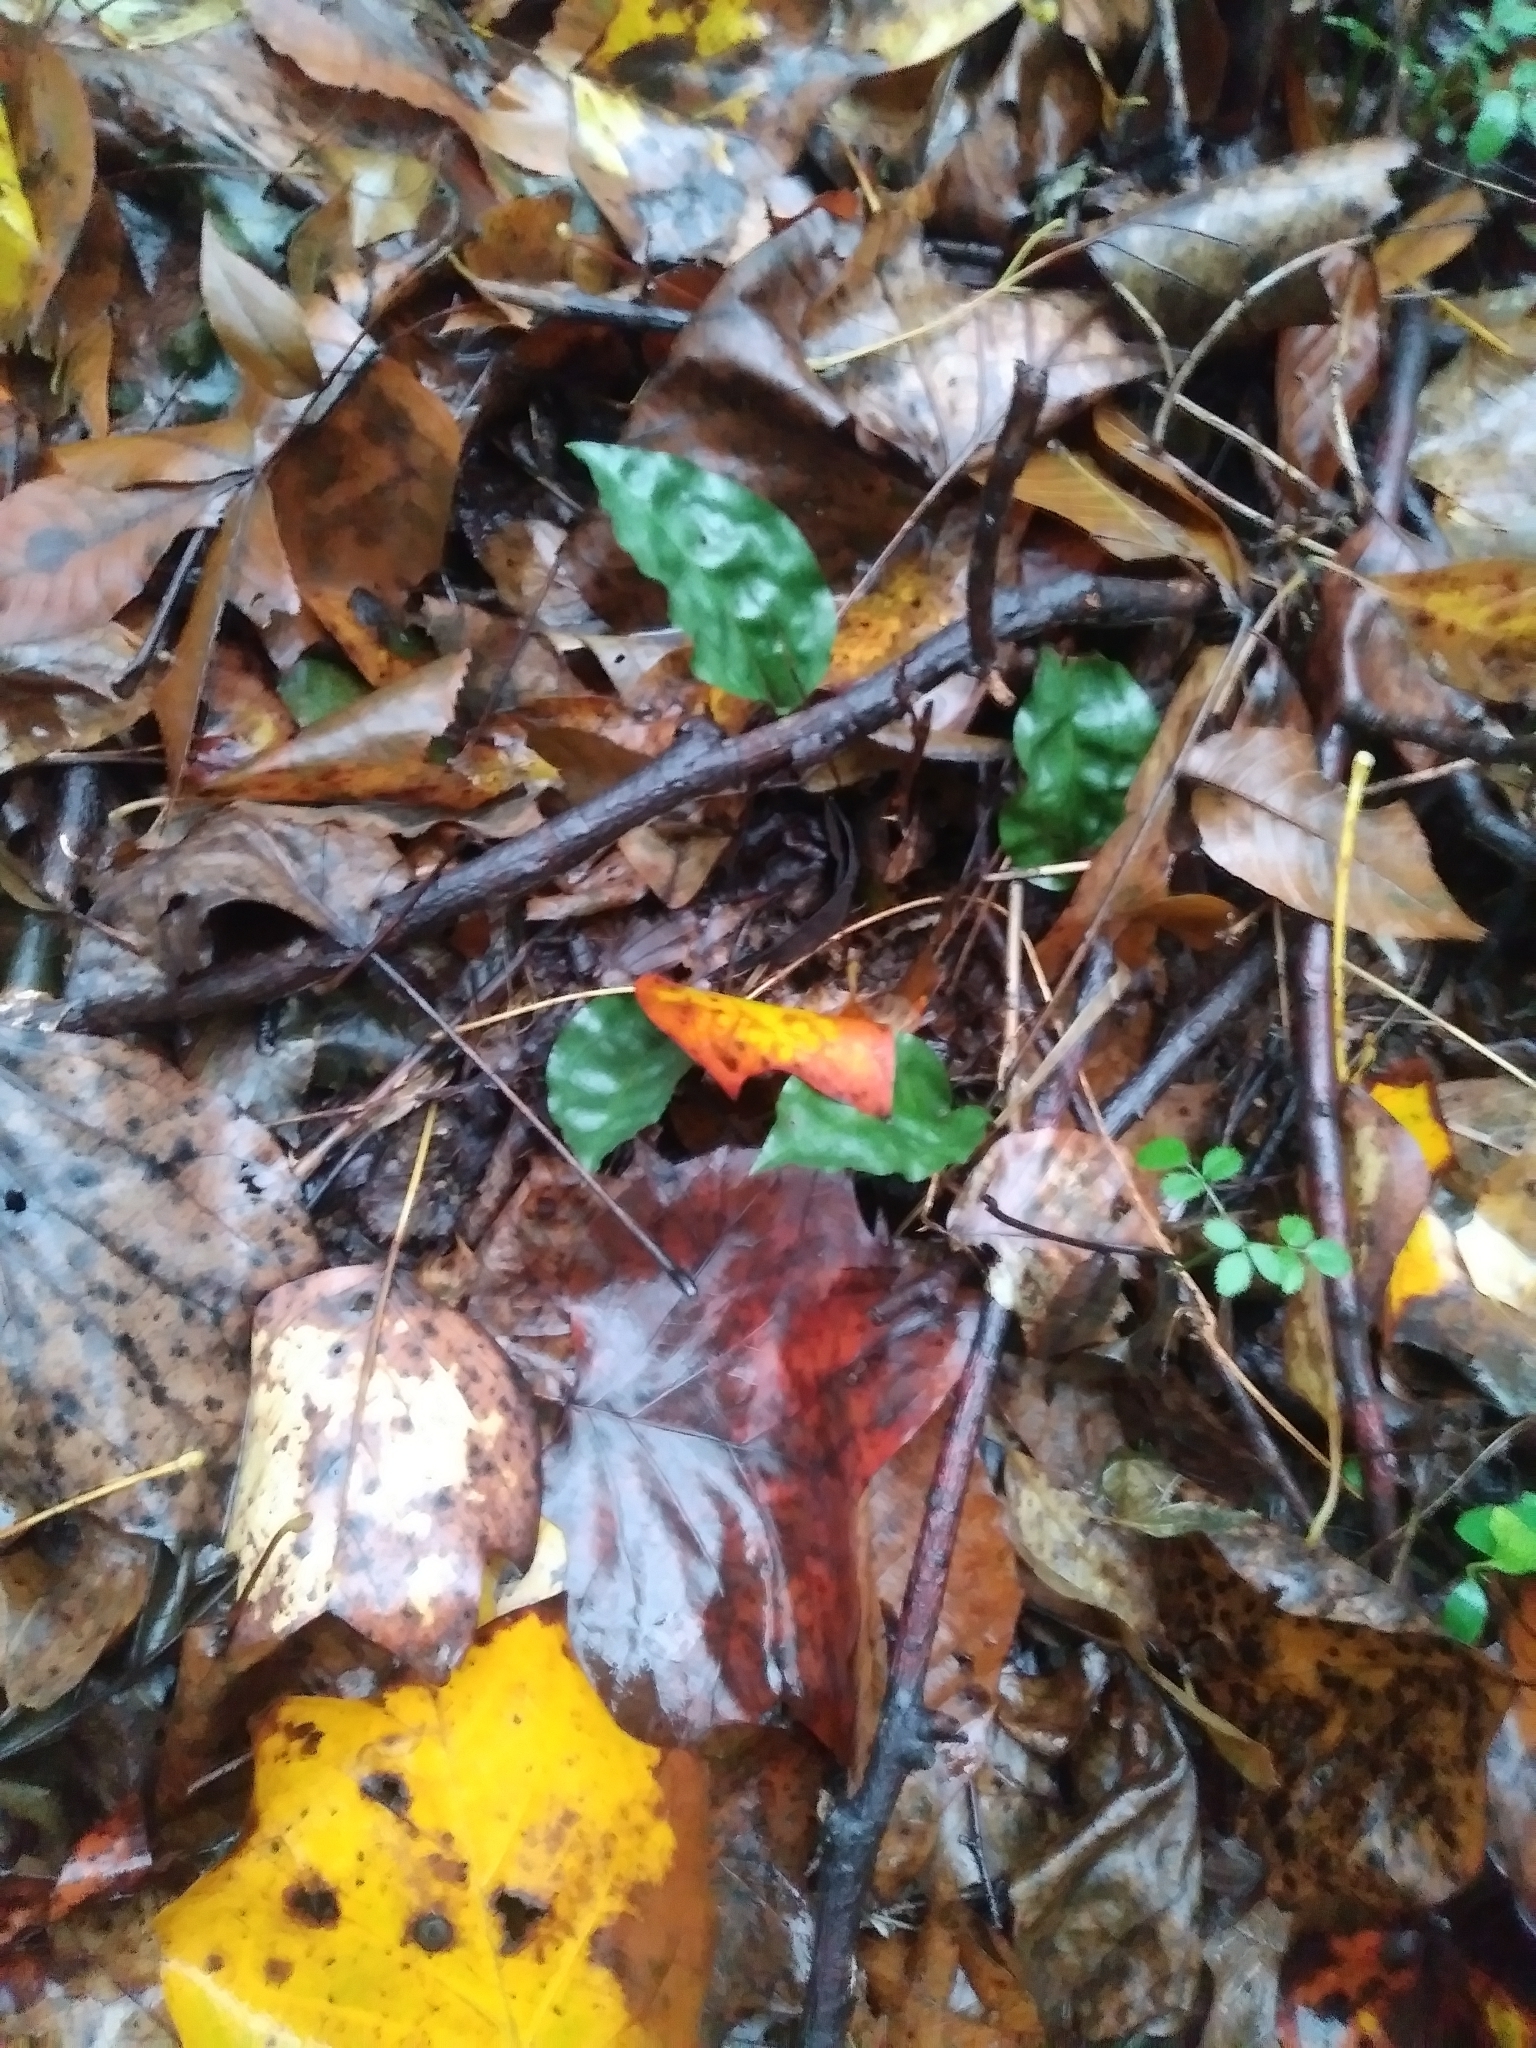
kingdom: Plantae
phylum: Tracheophyta
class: Liliopsida
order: Asparagales
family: Orchidaceae
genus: Tipularia
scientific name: Tipularia discolor
